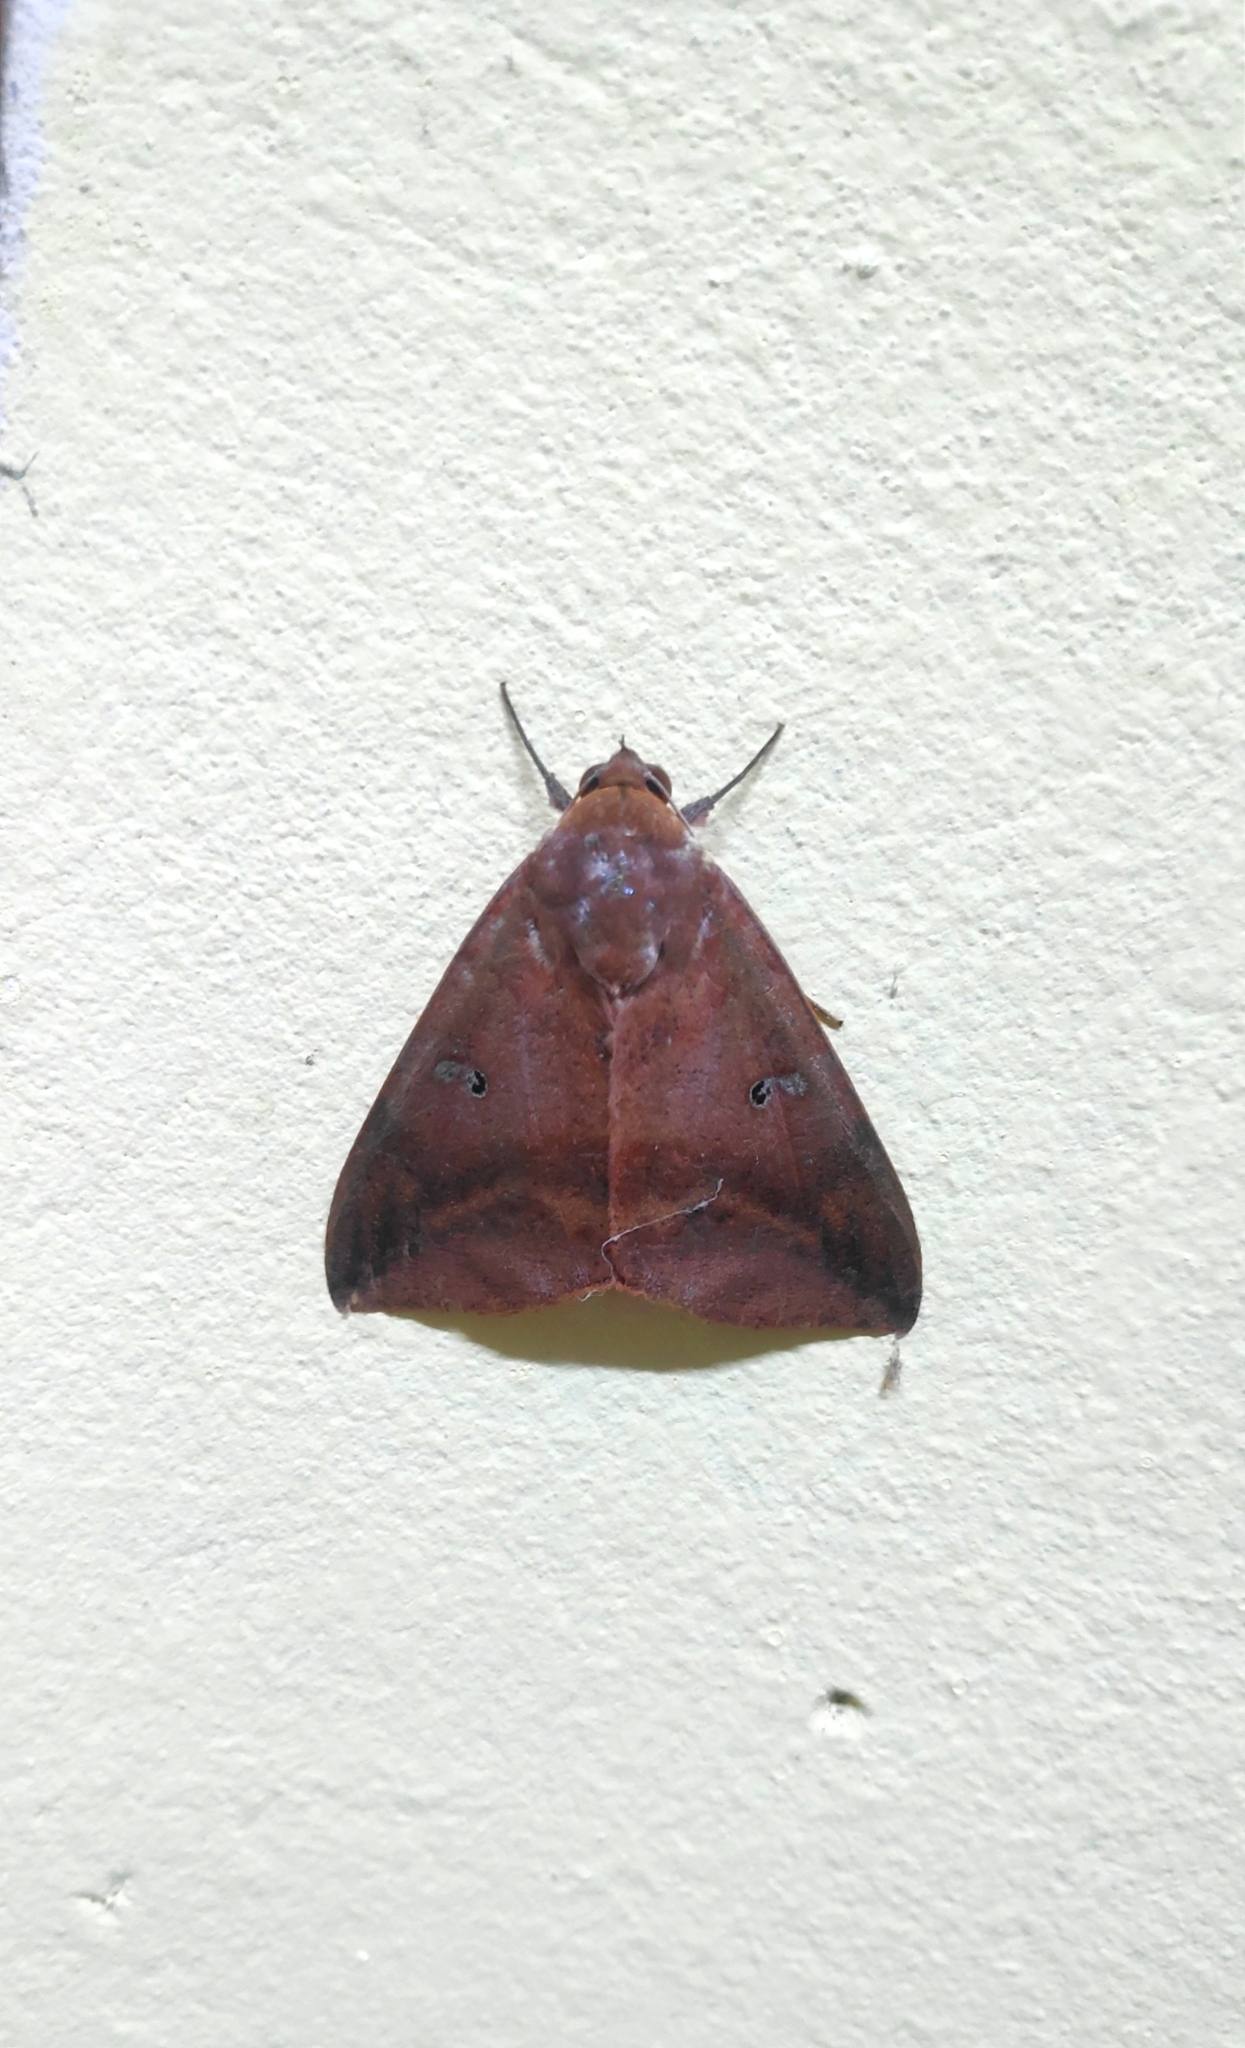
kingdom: Animalia
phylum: Arthropoda
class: Insecta
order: Lepidoptera
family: Erebidae
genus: Thyas
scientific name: Thyas honesta
